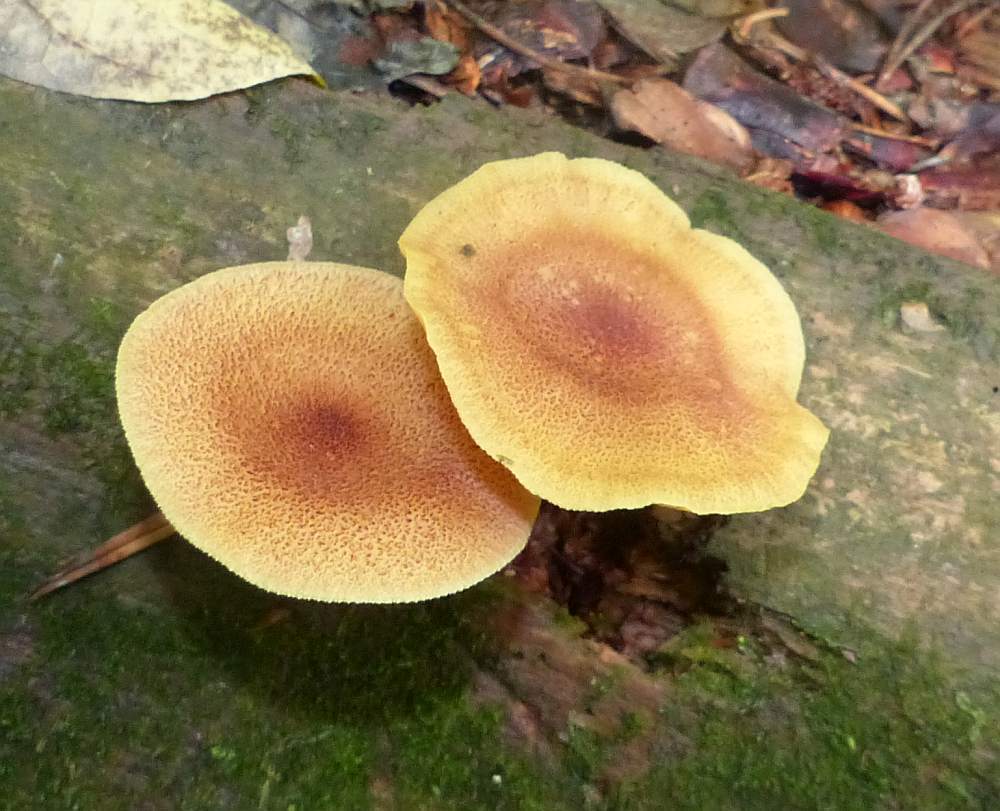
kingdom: Fungi
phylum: Basidiomycota
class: Agaricomycetes
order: Agaricales
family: Tricholomataceae
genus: Tricholomopsis
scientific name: Tricholomopsis decora
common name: Prunes and custard
